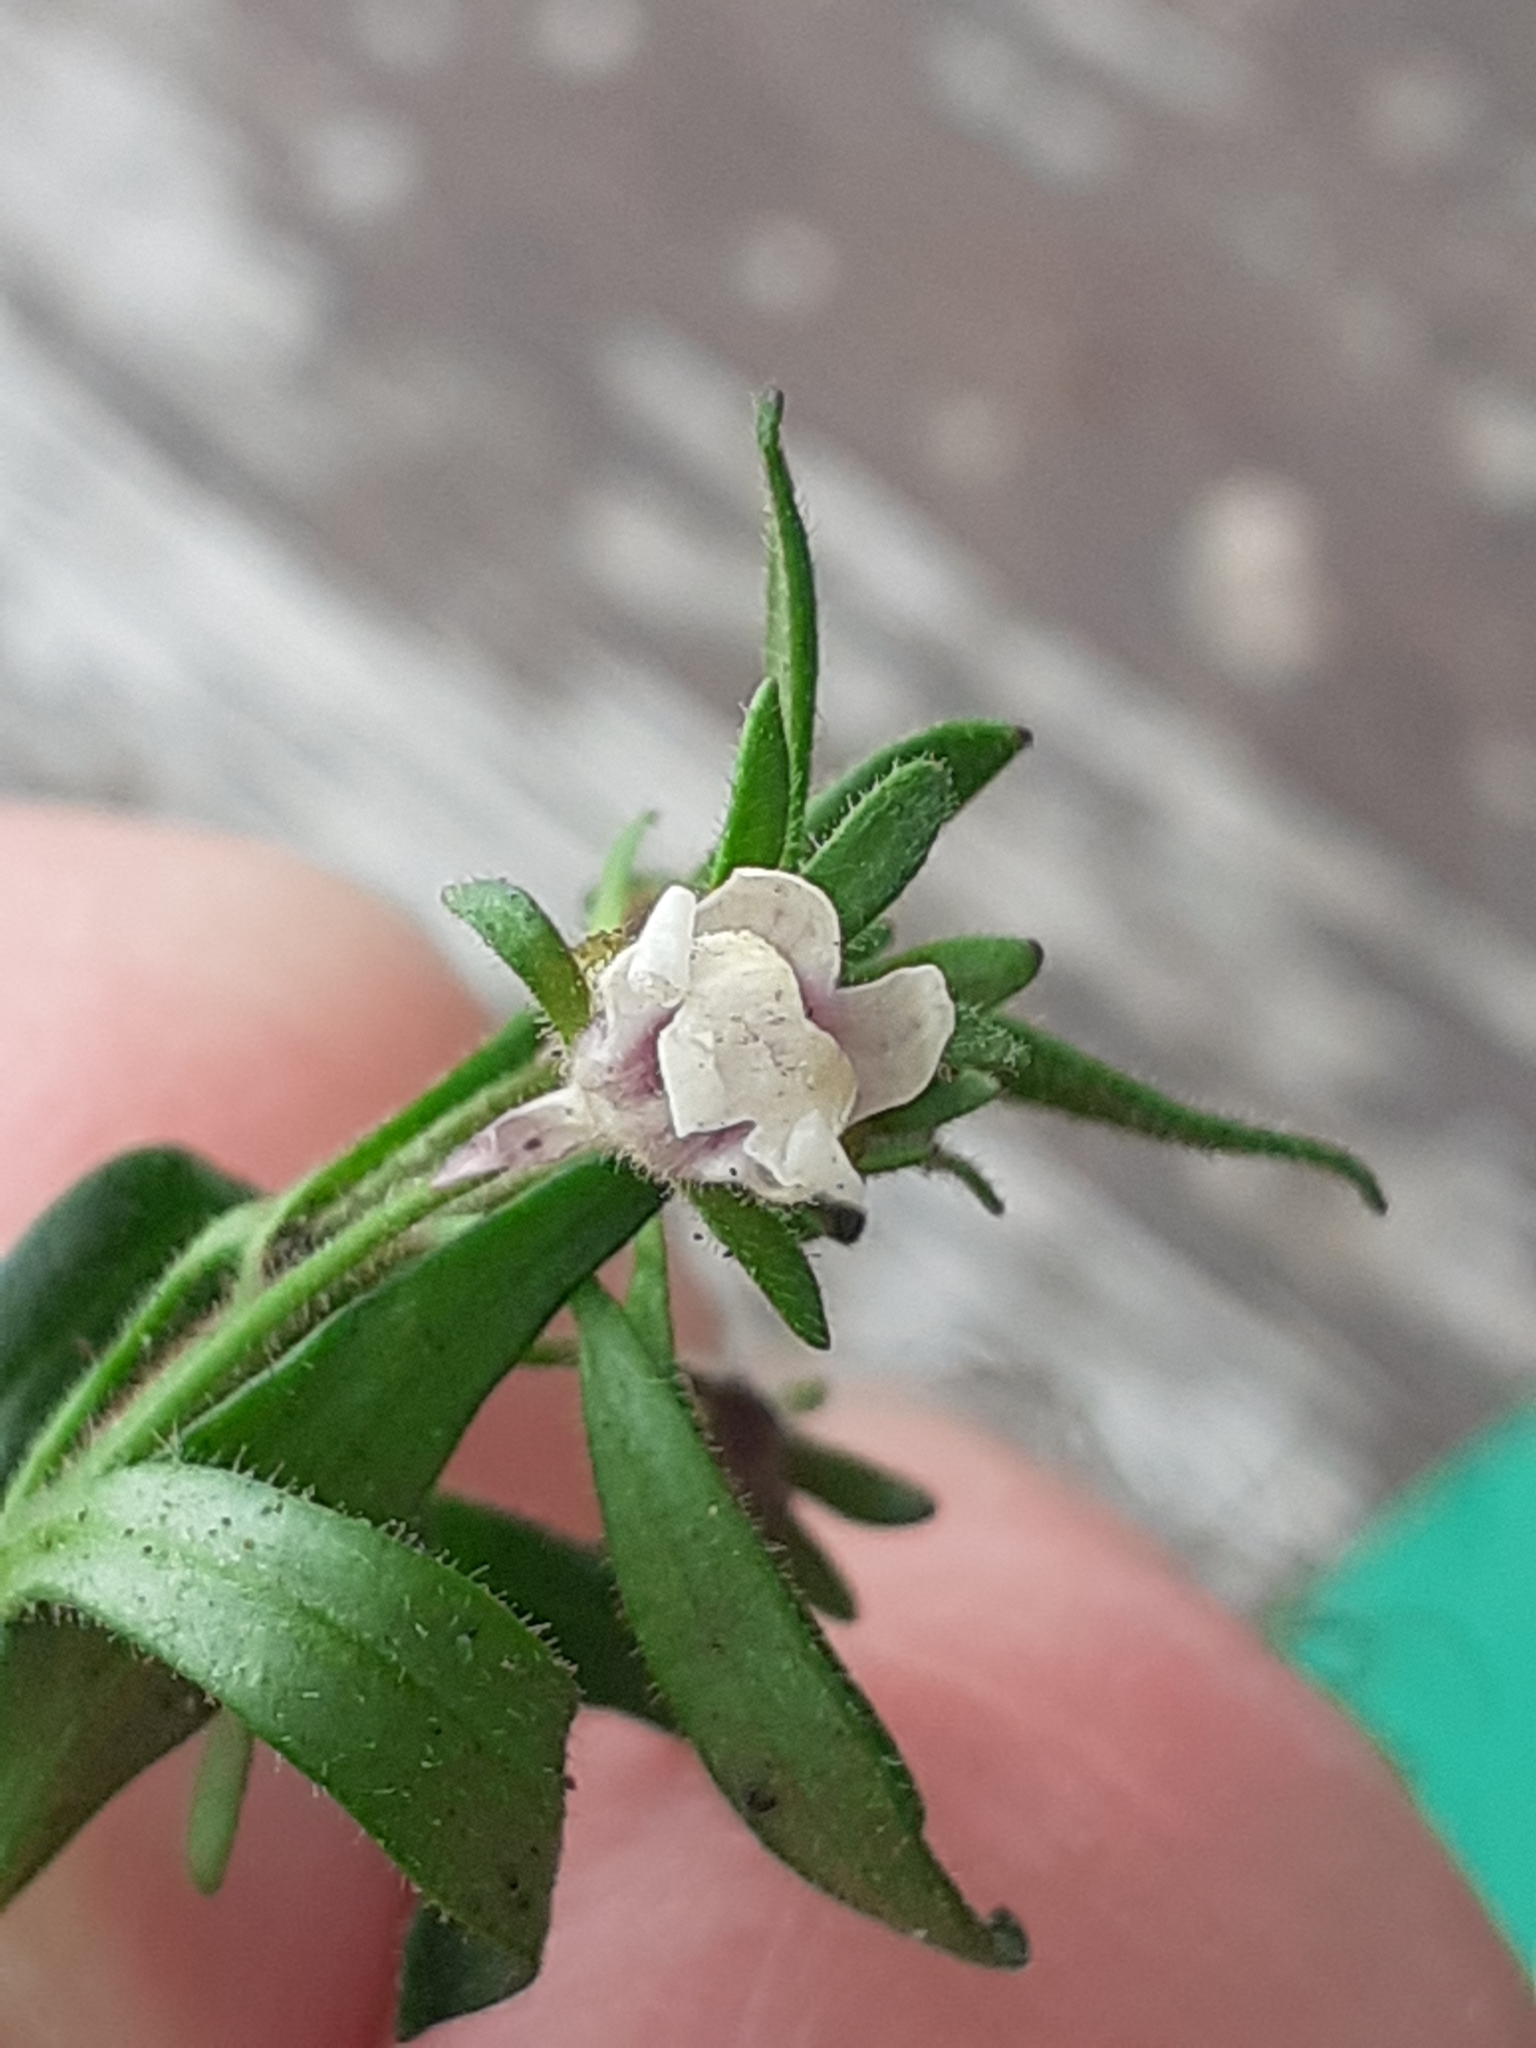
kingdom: Plantae
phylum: Tracheophyta
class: Magnoliopsida
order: Lamiales
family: Plantaginaceae
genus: Chaenorhinum
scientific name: Chaenorhinum minus
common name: Dwarf snapdragon
